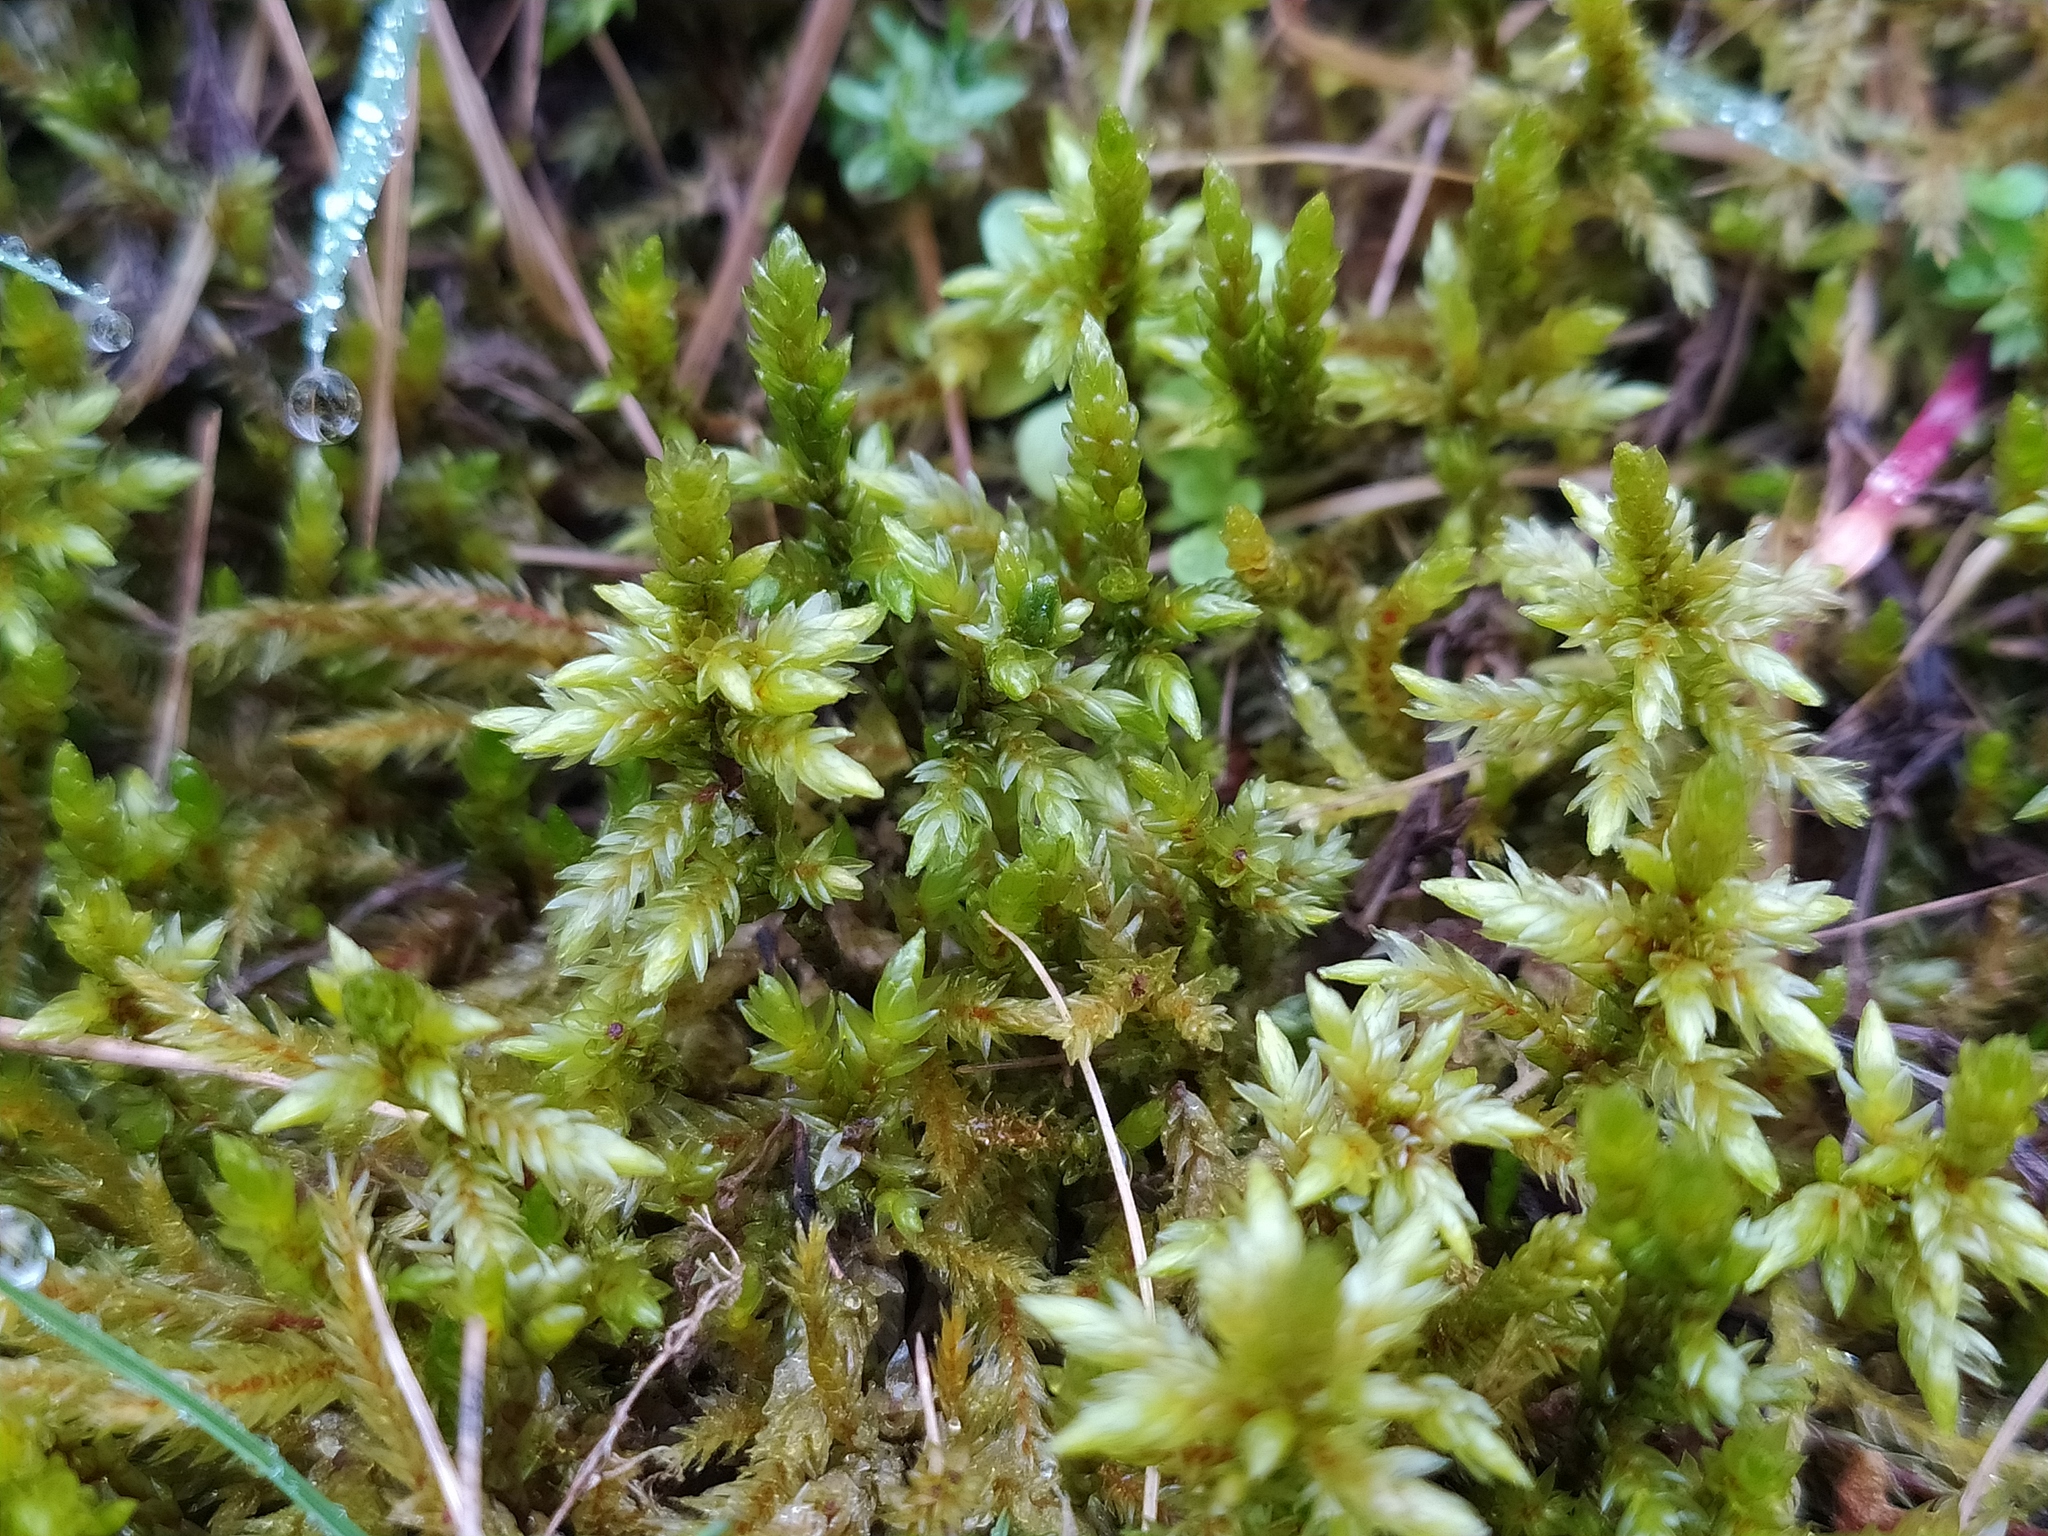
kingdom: Plantae
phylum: Bryophyta
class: Bryopsida
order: Hypnales
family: Climaciaceae
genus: Climacium
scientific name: Climacium dendroides
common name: Northern tree moss
